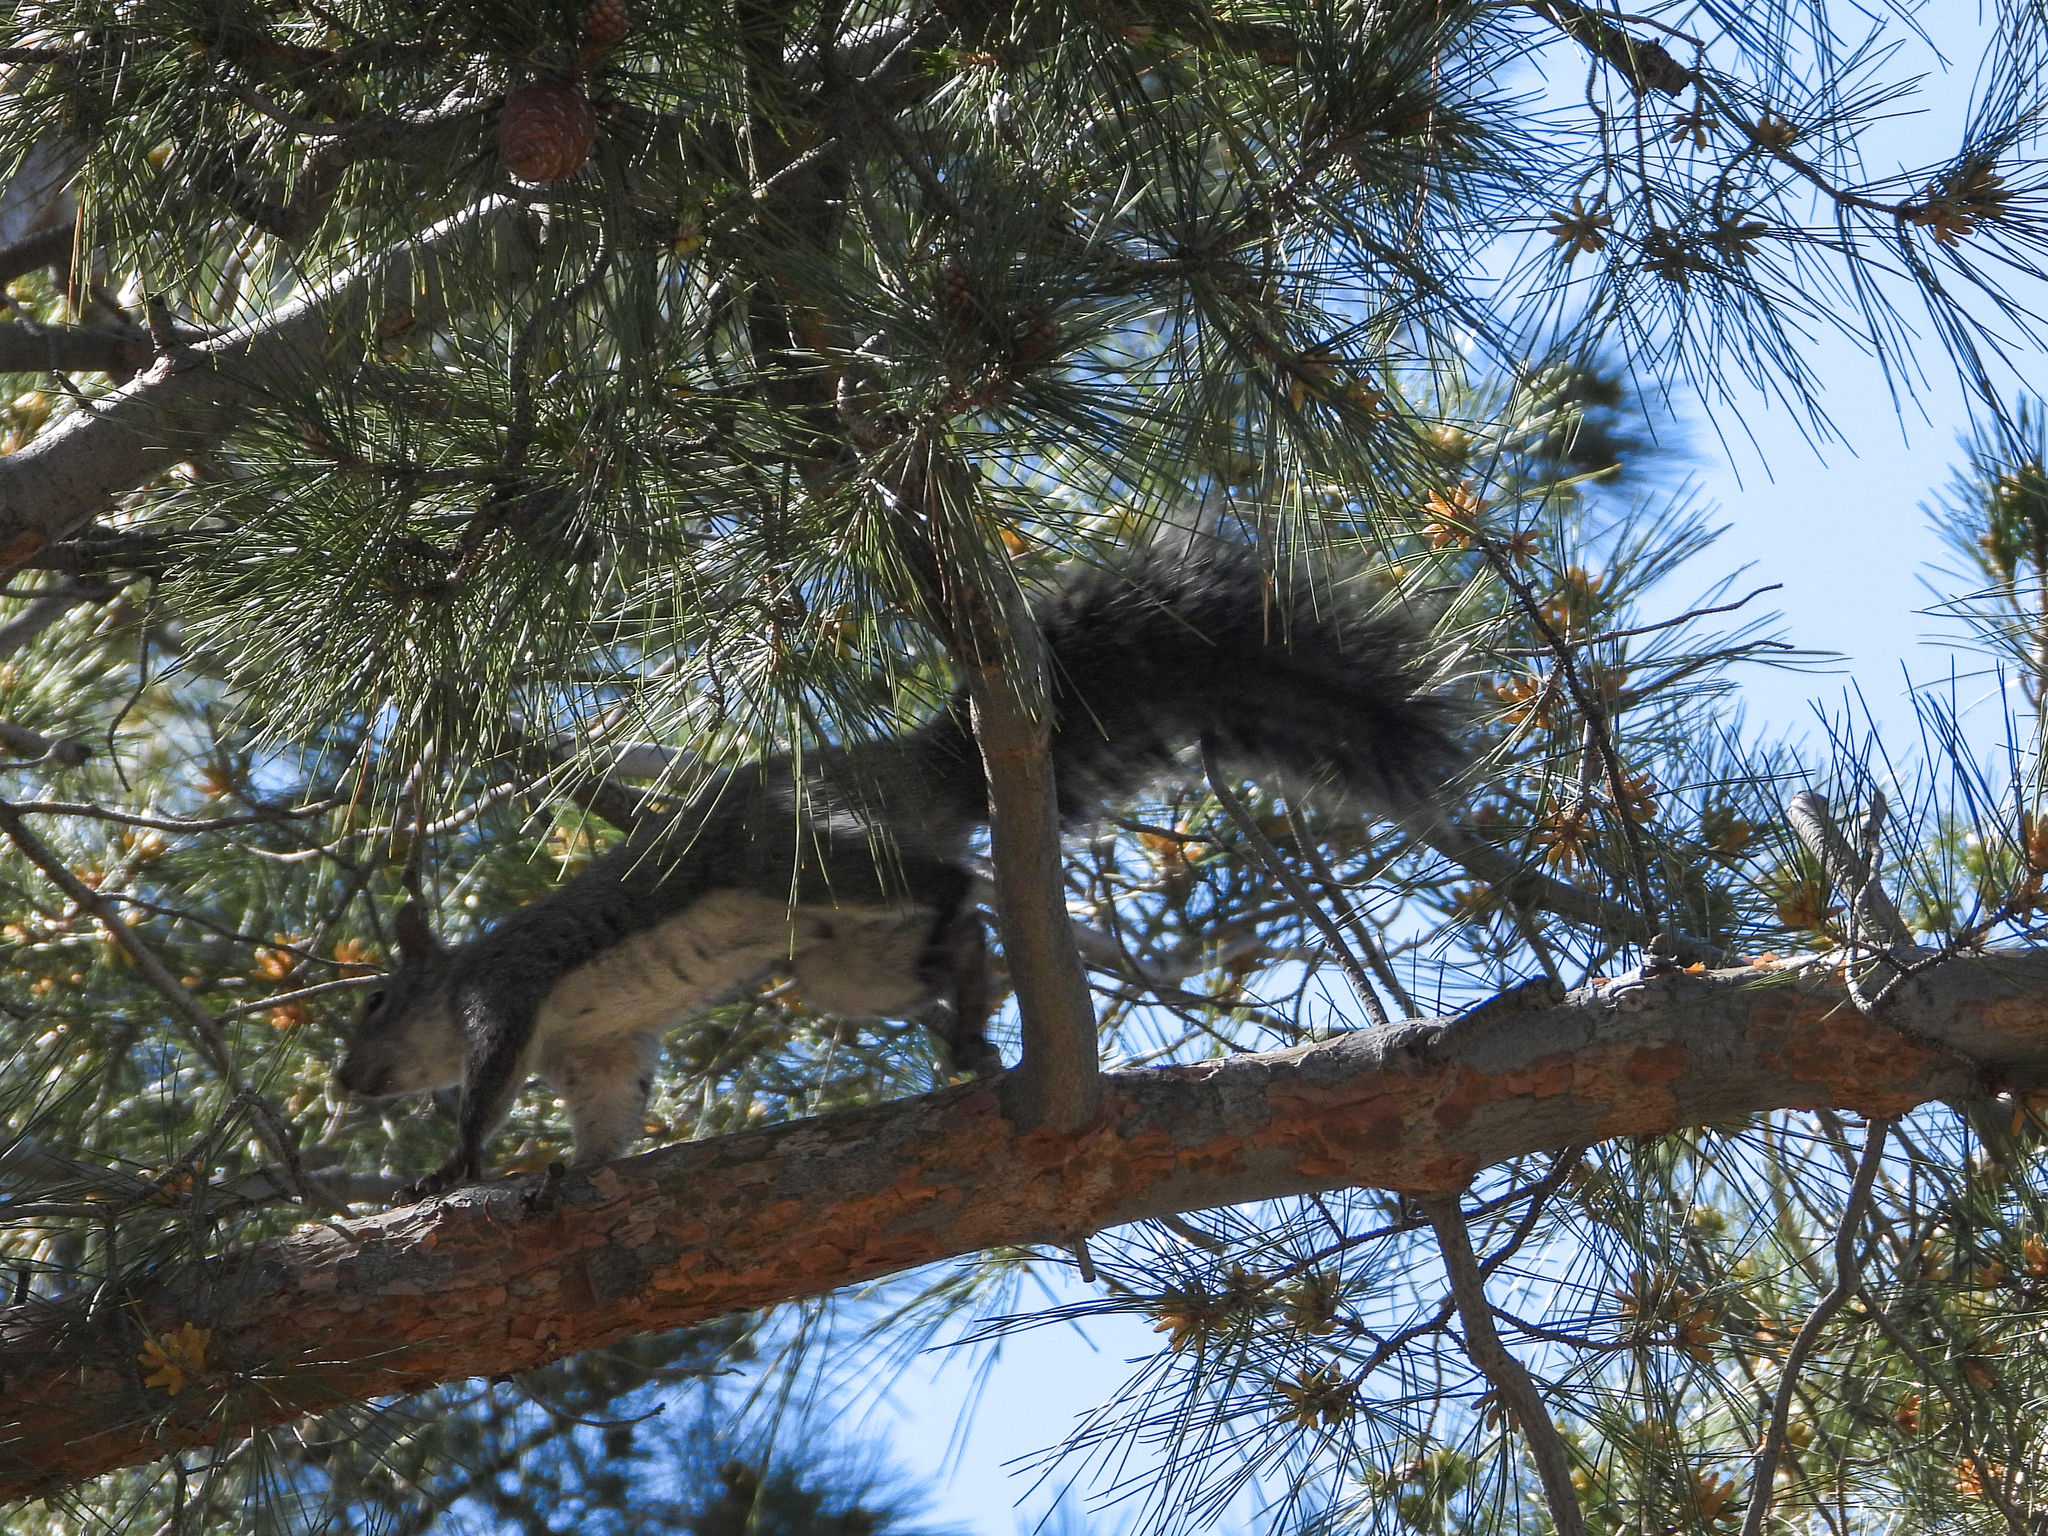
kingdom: Animalia
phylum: Chordata
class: Mammalia
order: Rodentia
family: Sciuridae
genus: Sciurus
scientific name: Sciurus griseus
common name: Western gray squirrel
